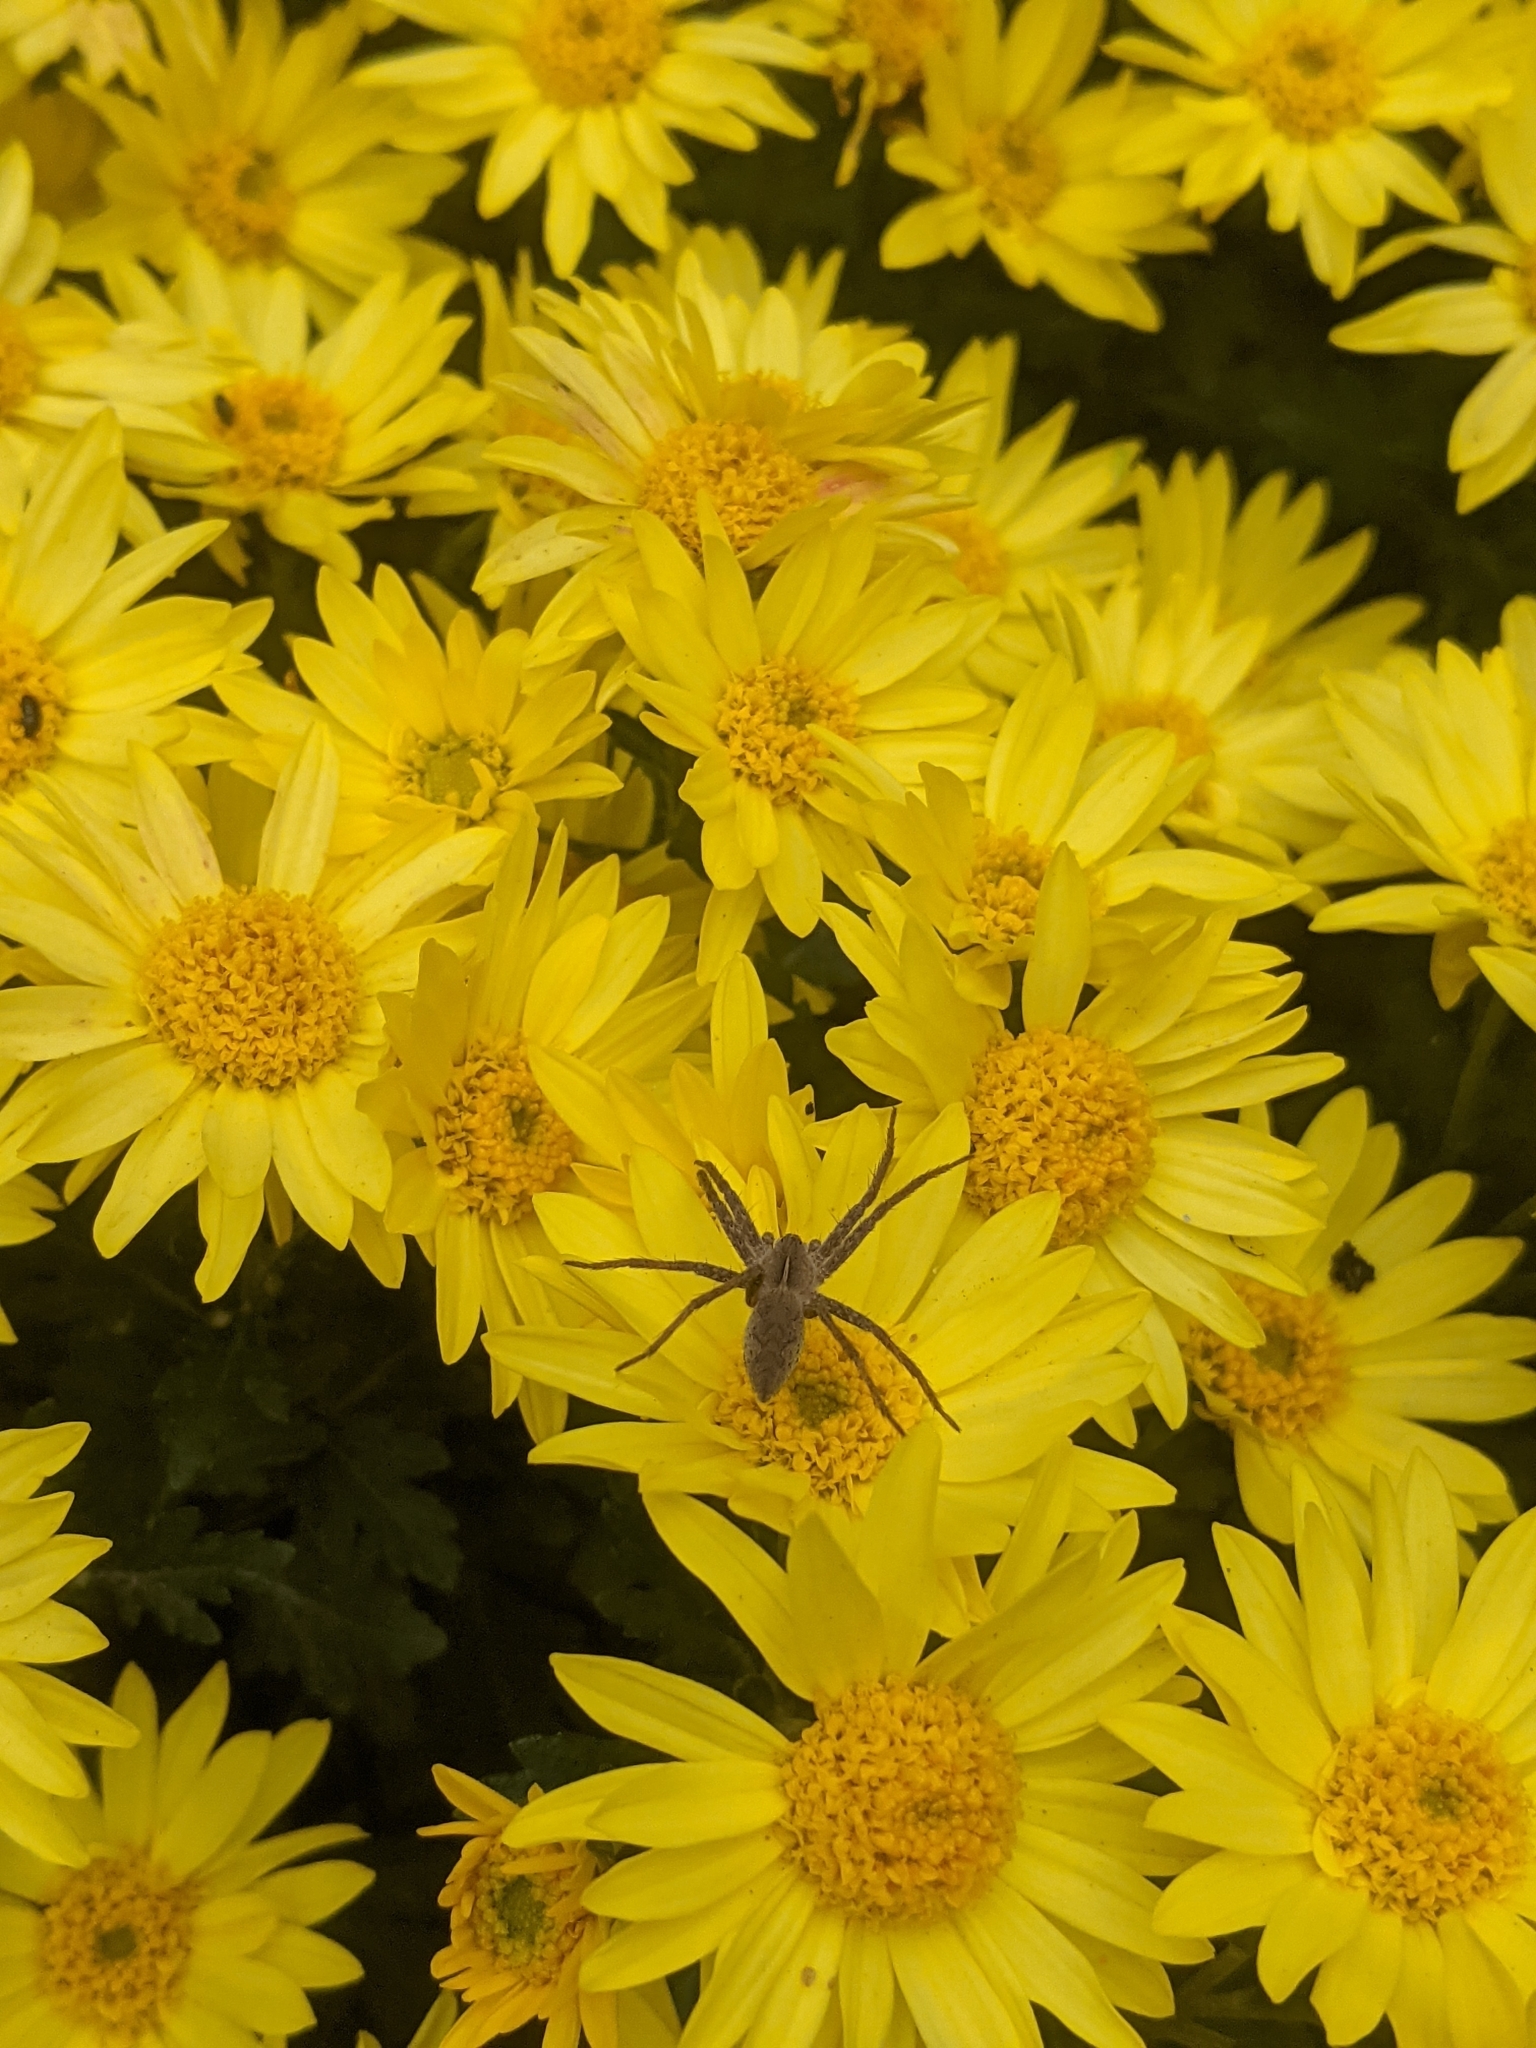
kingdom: Animalia
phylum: Arthropoda
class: Arachnida
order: Araneae
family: Pisauridae
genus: Pisaura
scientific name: Pisaura mirabilis
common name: Tent spider
